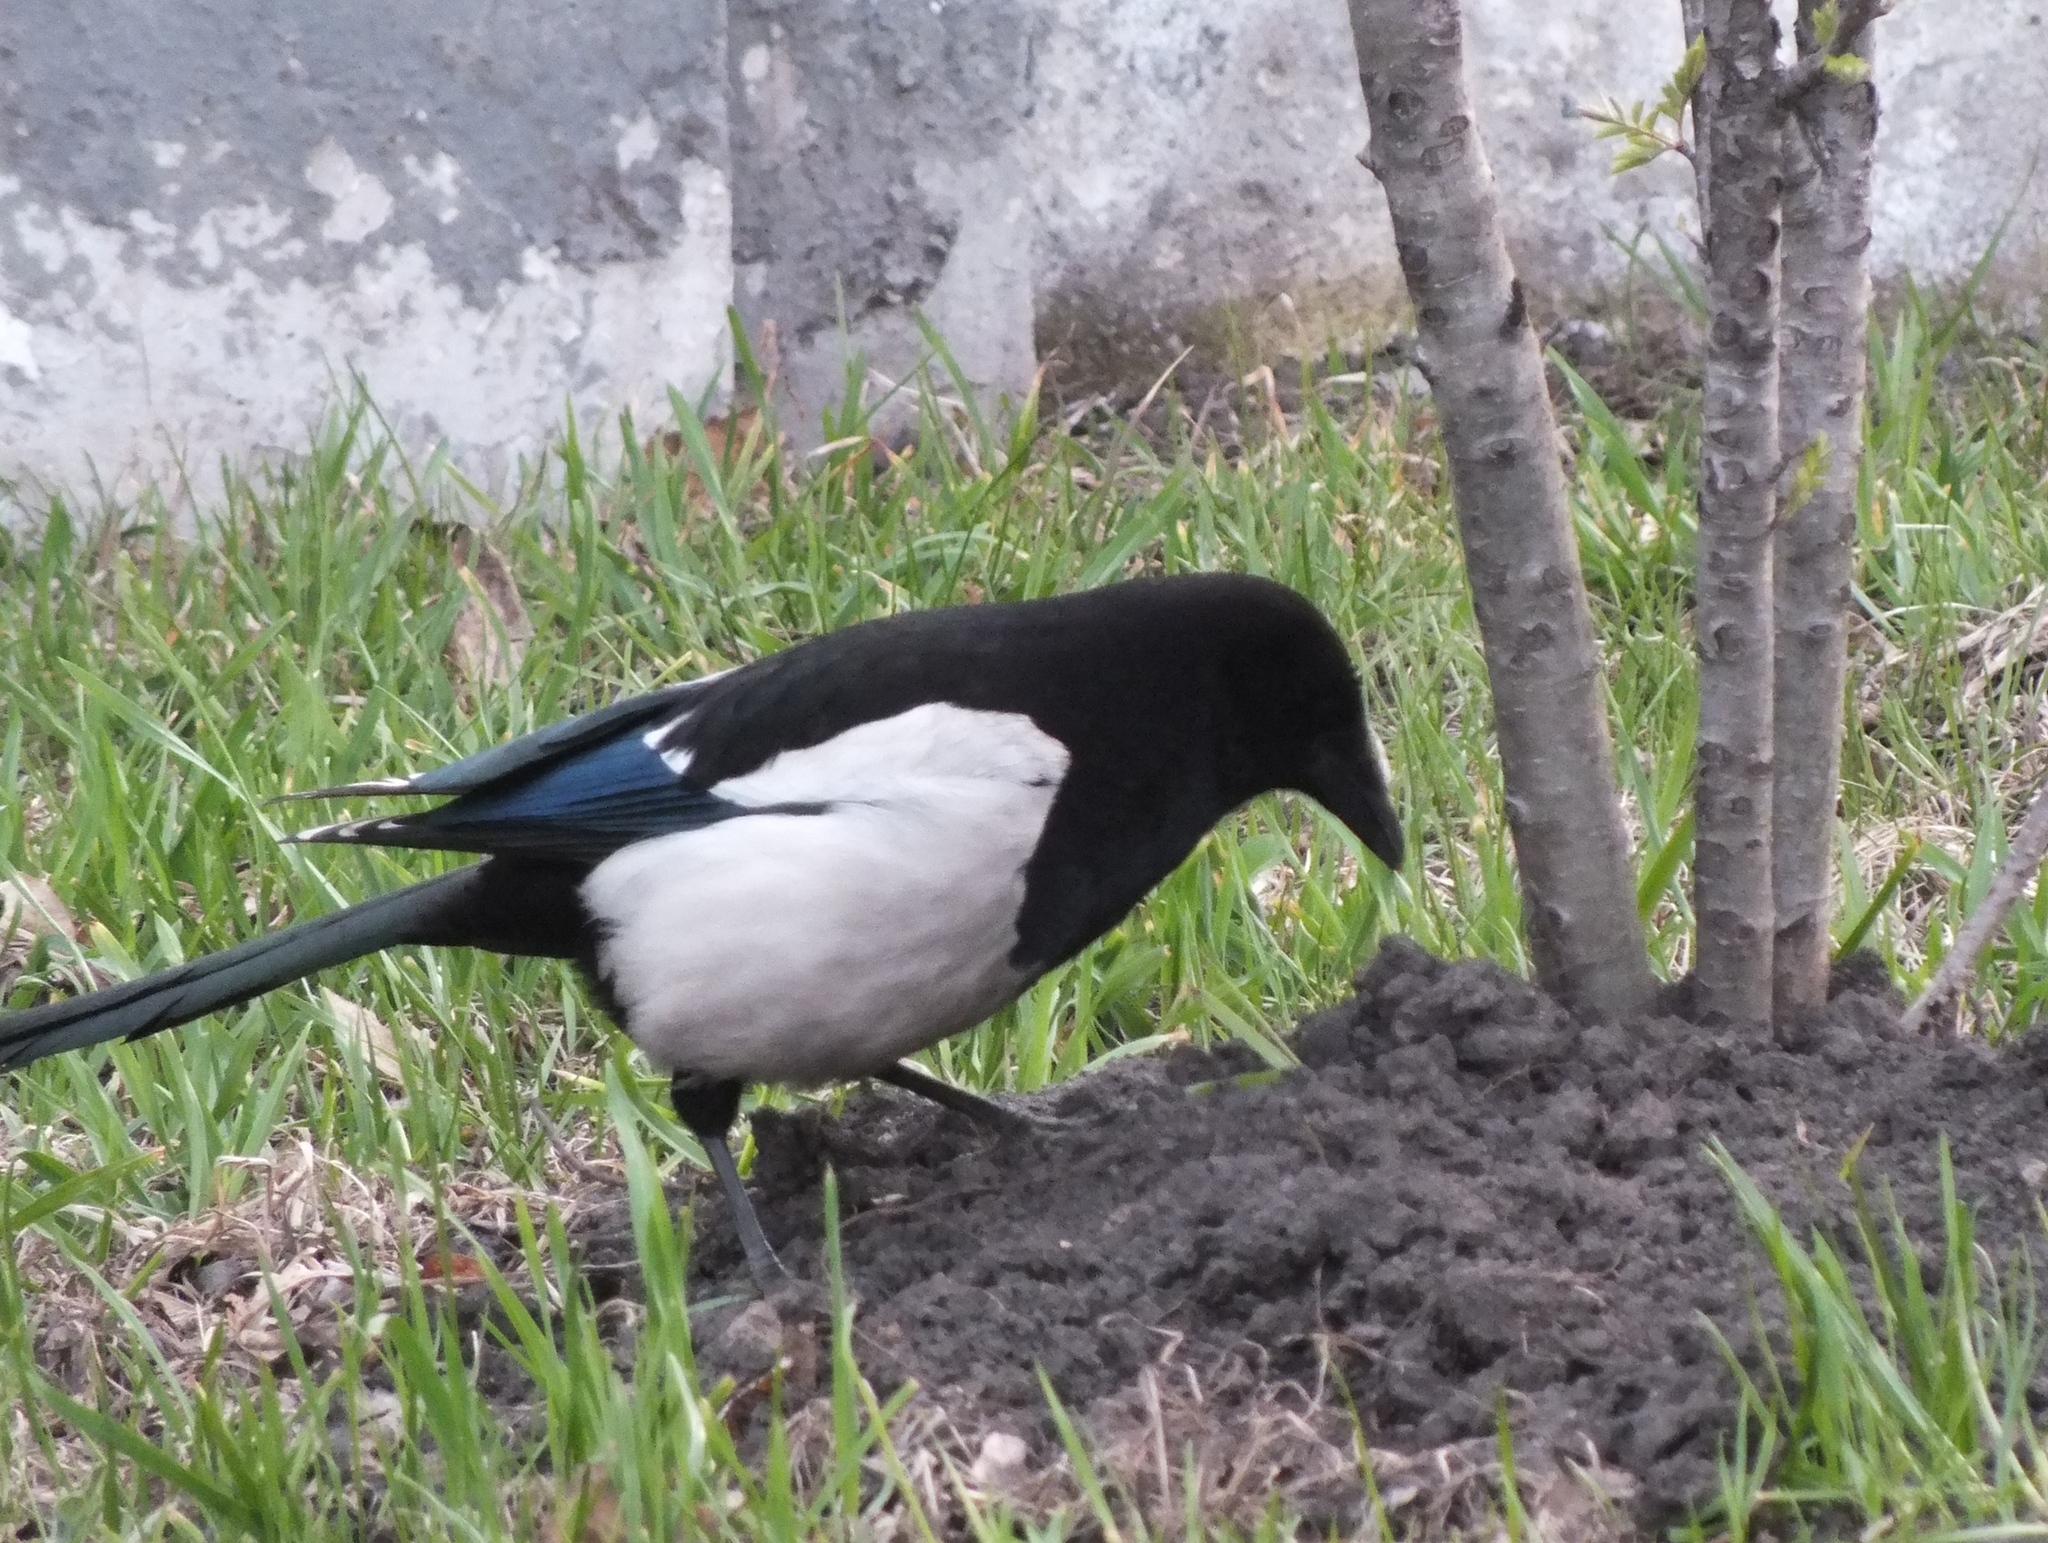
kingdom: Animalia
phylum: Chordata
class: Aves
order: Passeriformes
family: Corvidae
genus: Pica
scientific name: Pica pica
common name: Eurasian magpie
